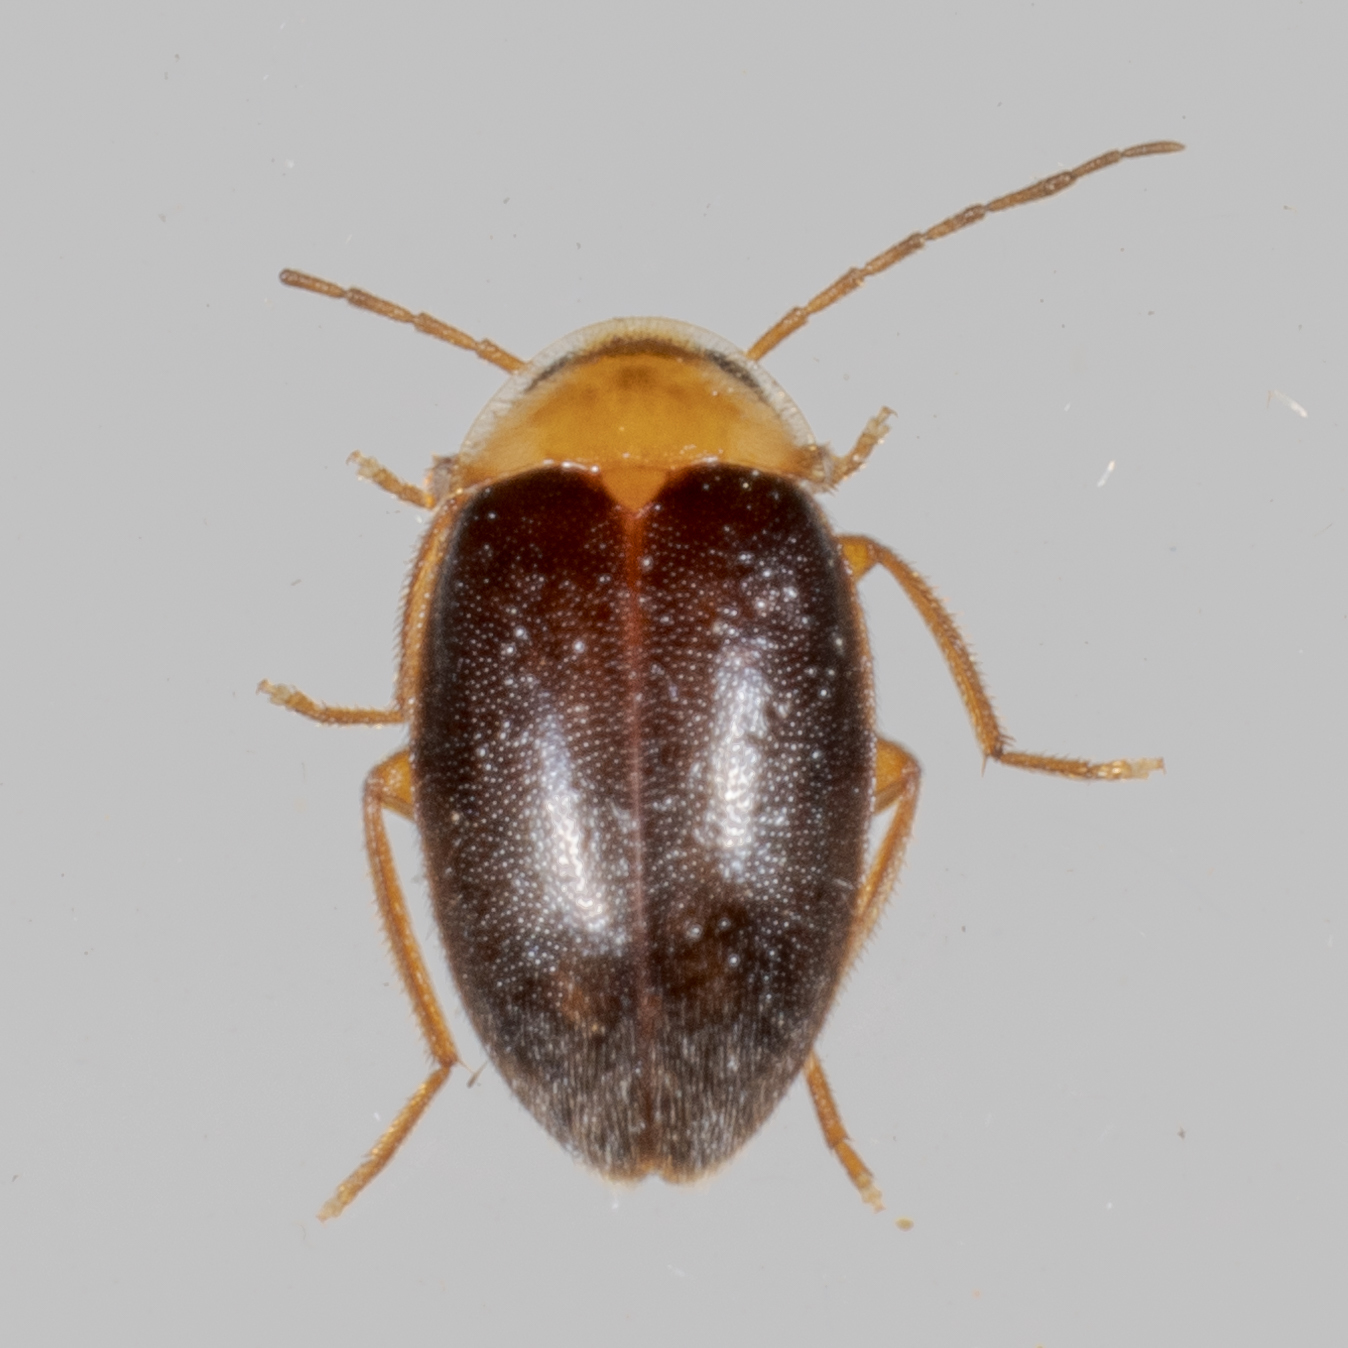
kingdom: Animalia
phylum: Arthropoda
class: Insecta
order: Coleoptera
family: Scirtidae
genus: Sacodes
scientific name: Sacodes pulchella
